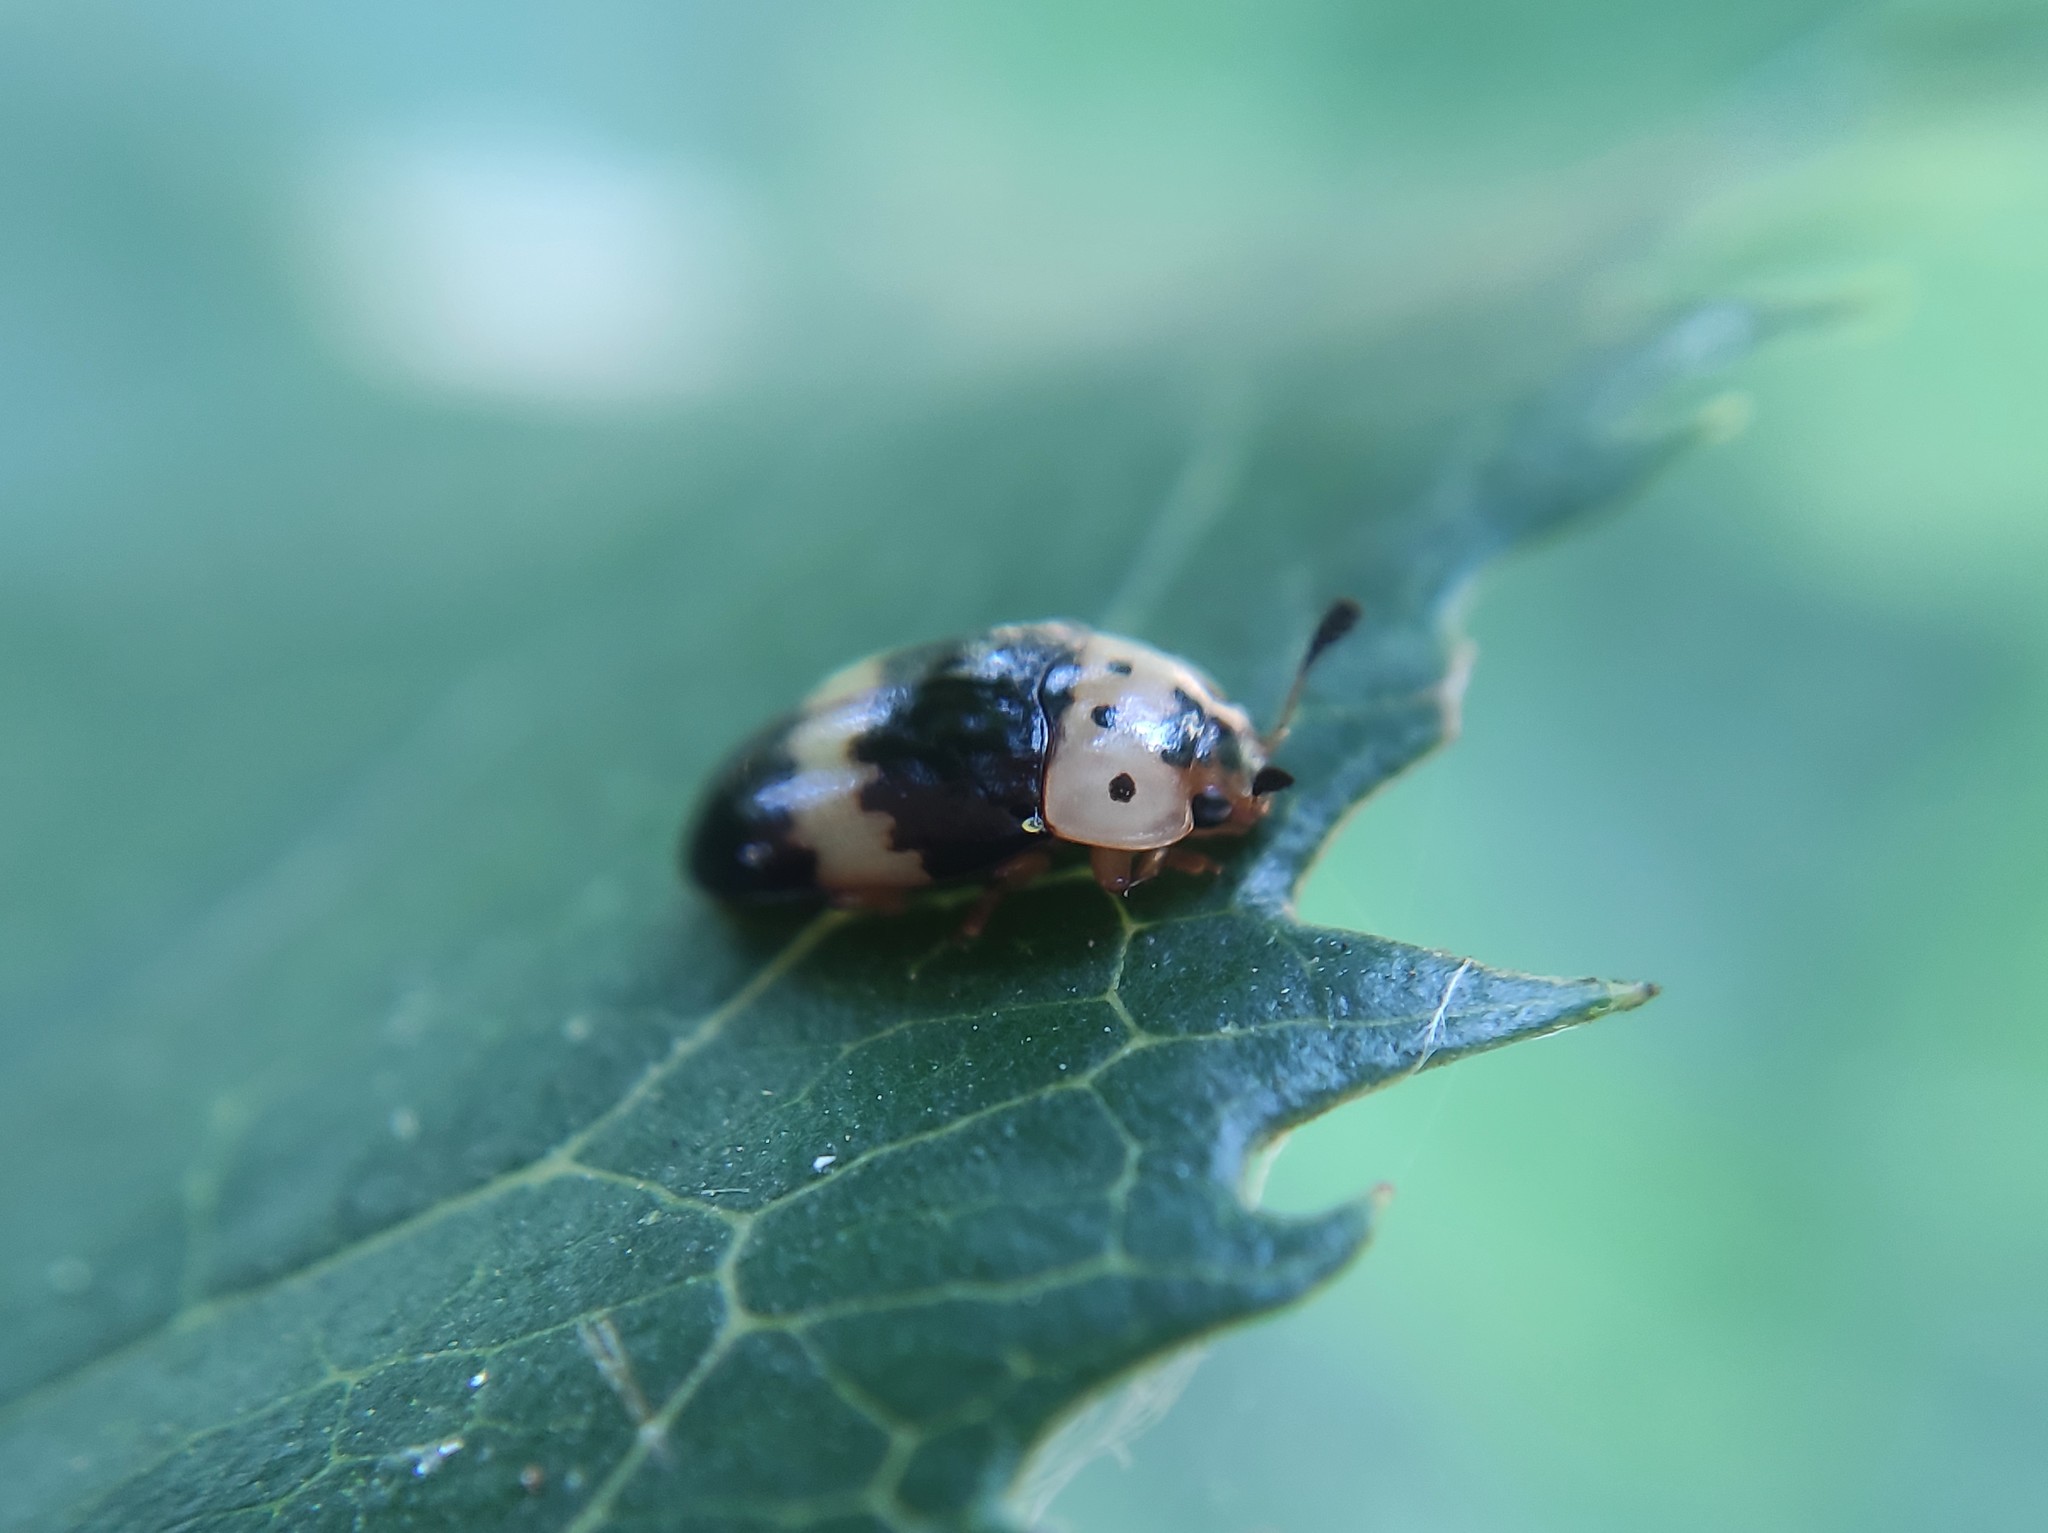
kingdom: Animalia
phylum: Arthropoda
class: Insecta
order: Coleoptera
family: Erotylidae
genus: Mycotretus
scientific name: Mycotretus brasilianus
